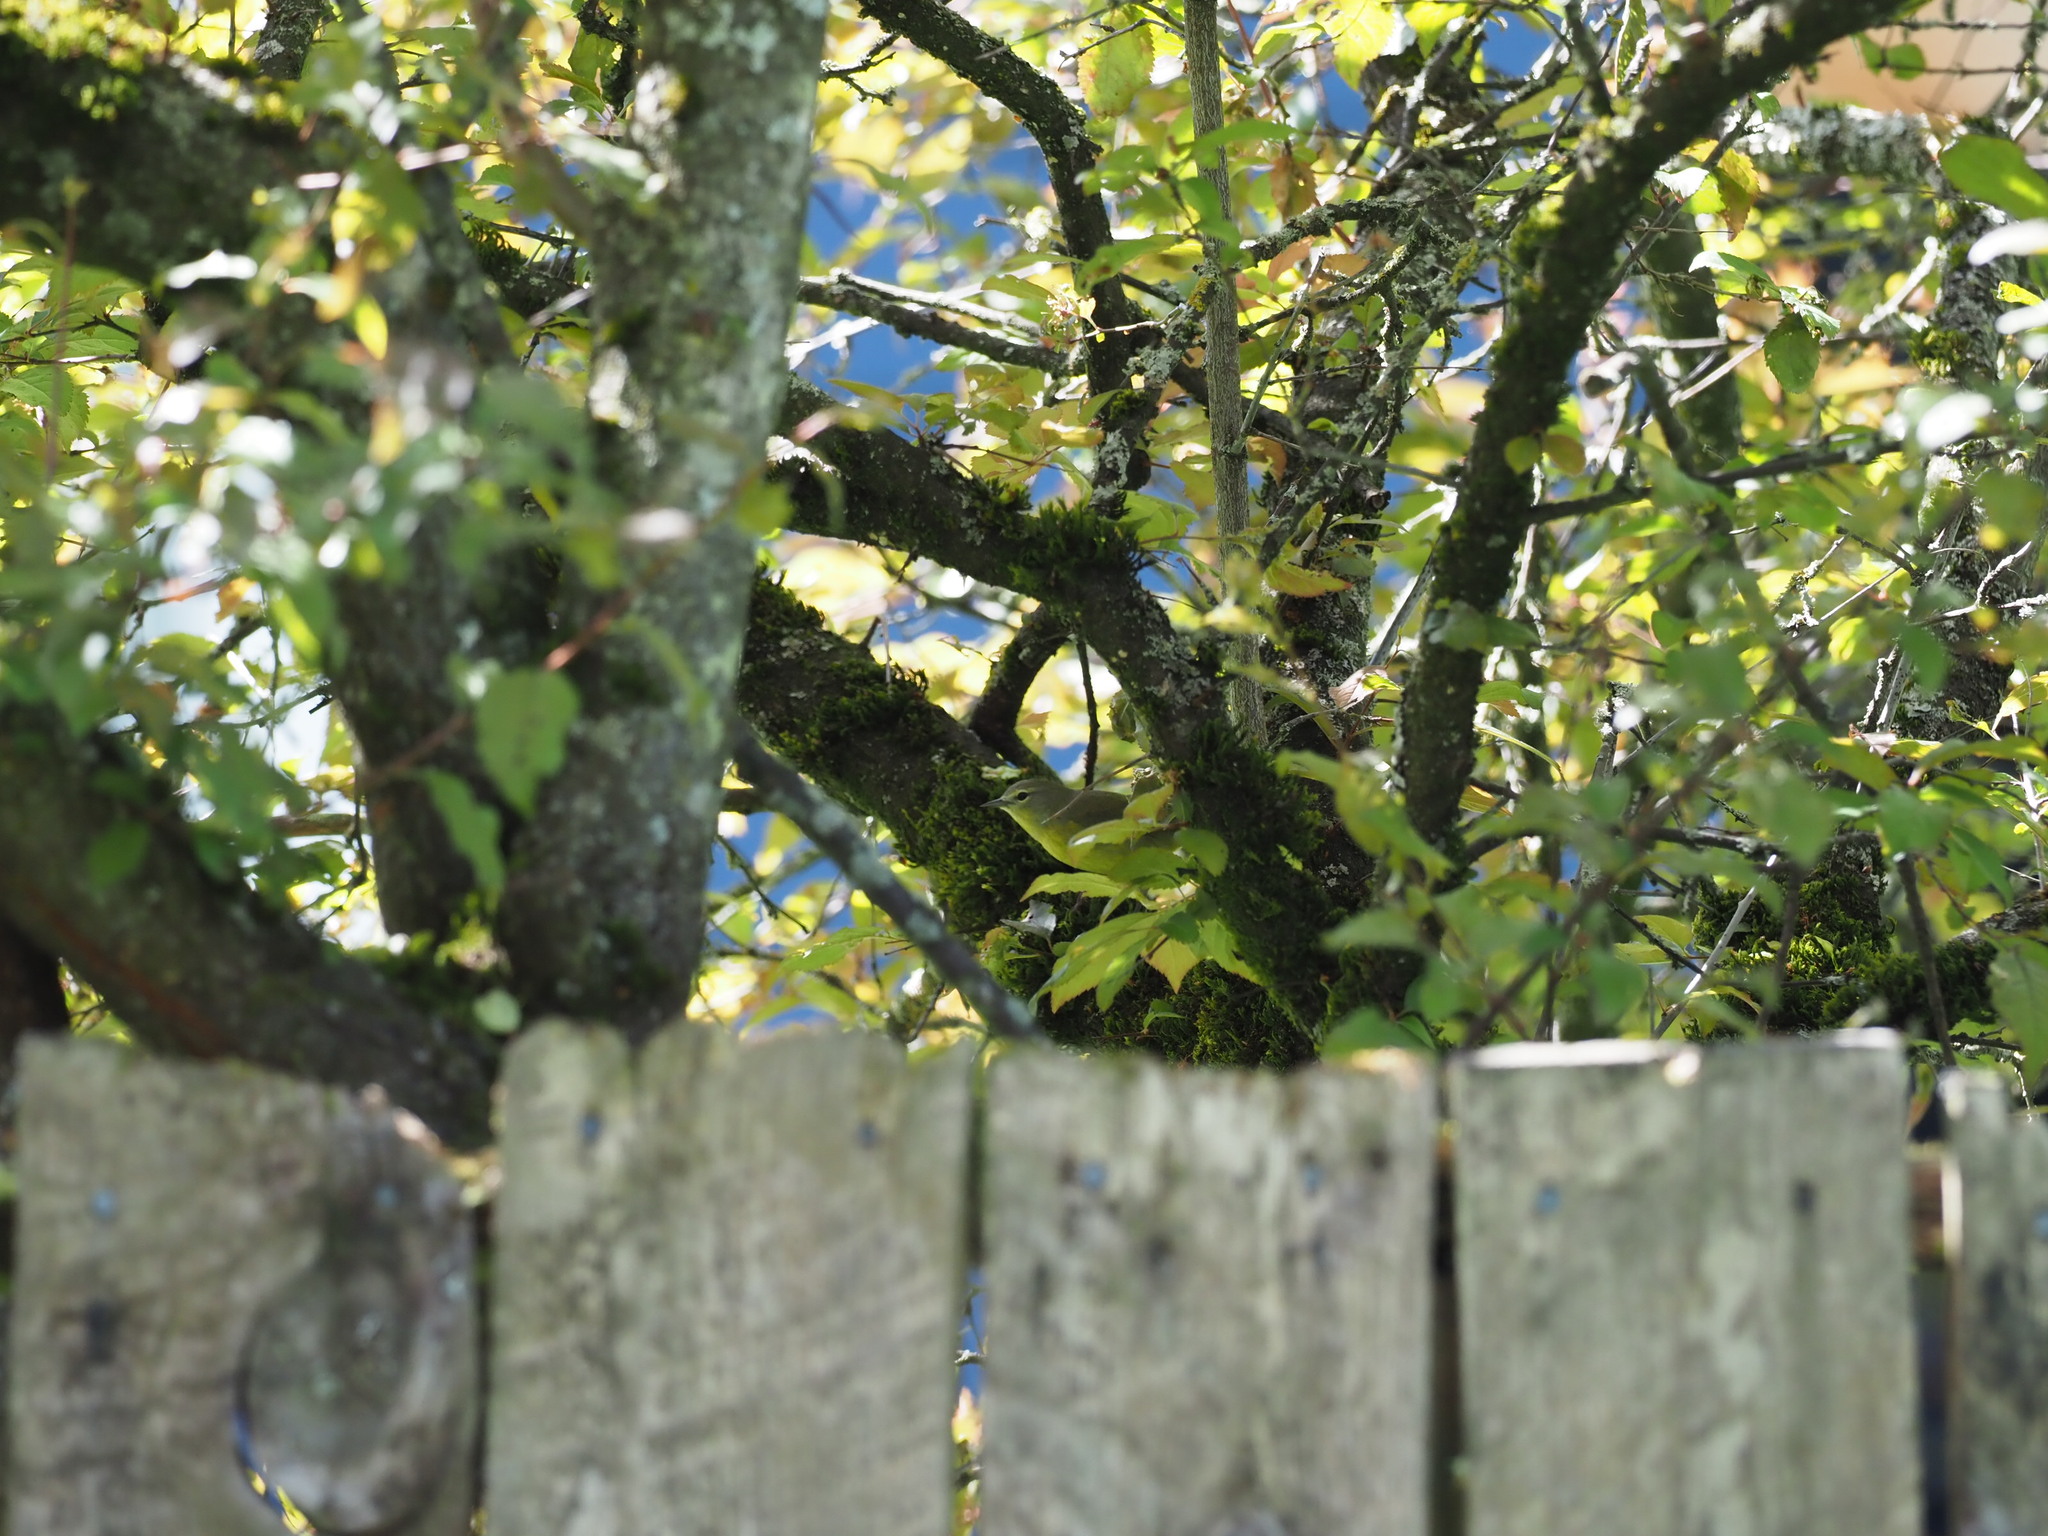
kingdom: Animalia
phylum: Chordata
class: Aves
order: Passeriformes
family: Parulidae
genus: Leiothlypis
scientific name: Leiothlypis celata
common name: Orange-crowned warbler
